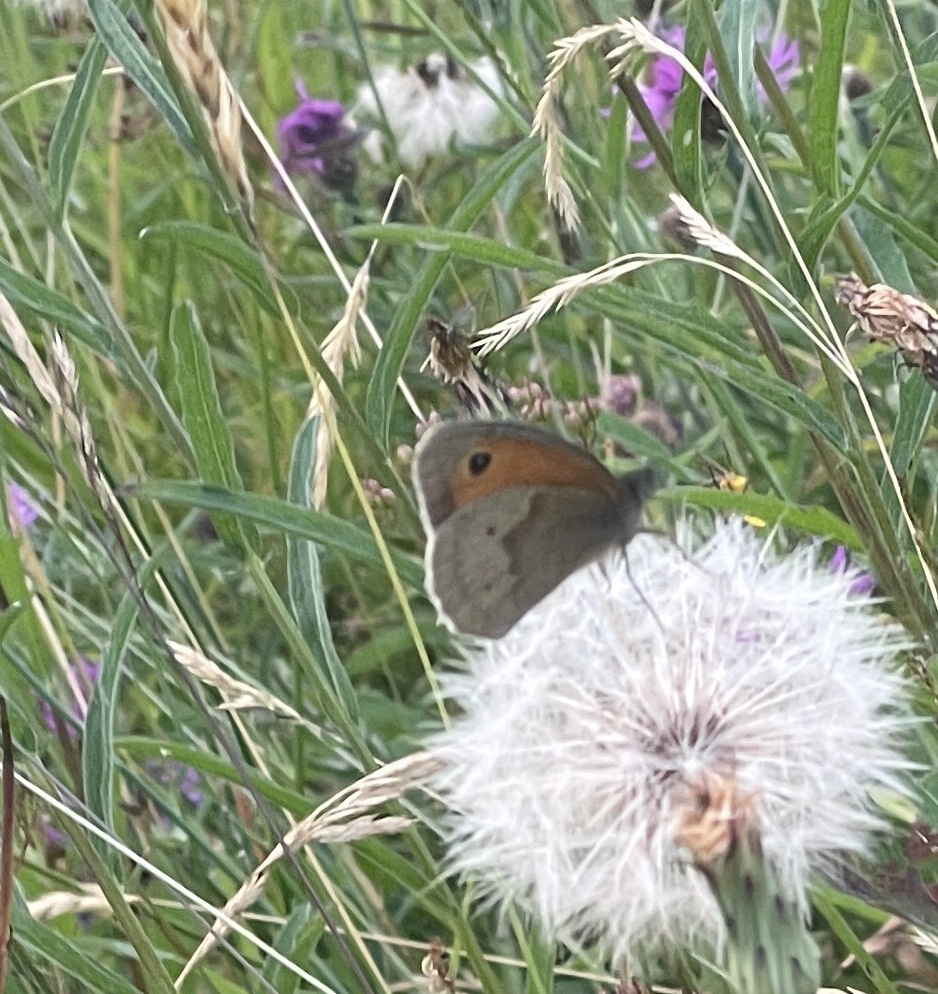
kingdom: Animalia
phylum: Arthropoda
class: Insecta
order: Lepidoptera
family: Nymphalidae
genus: Maniola
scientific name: Maniola jurtina
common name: Meadow brown
